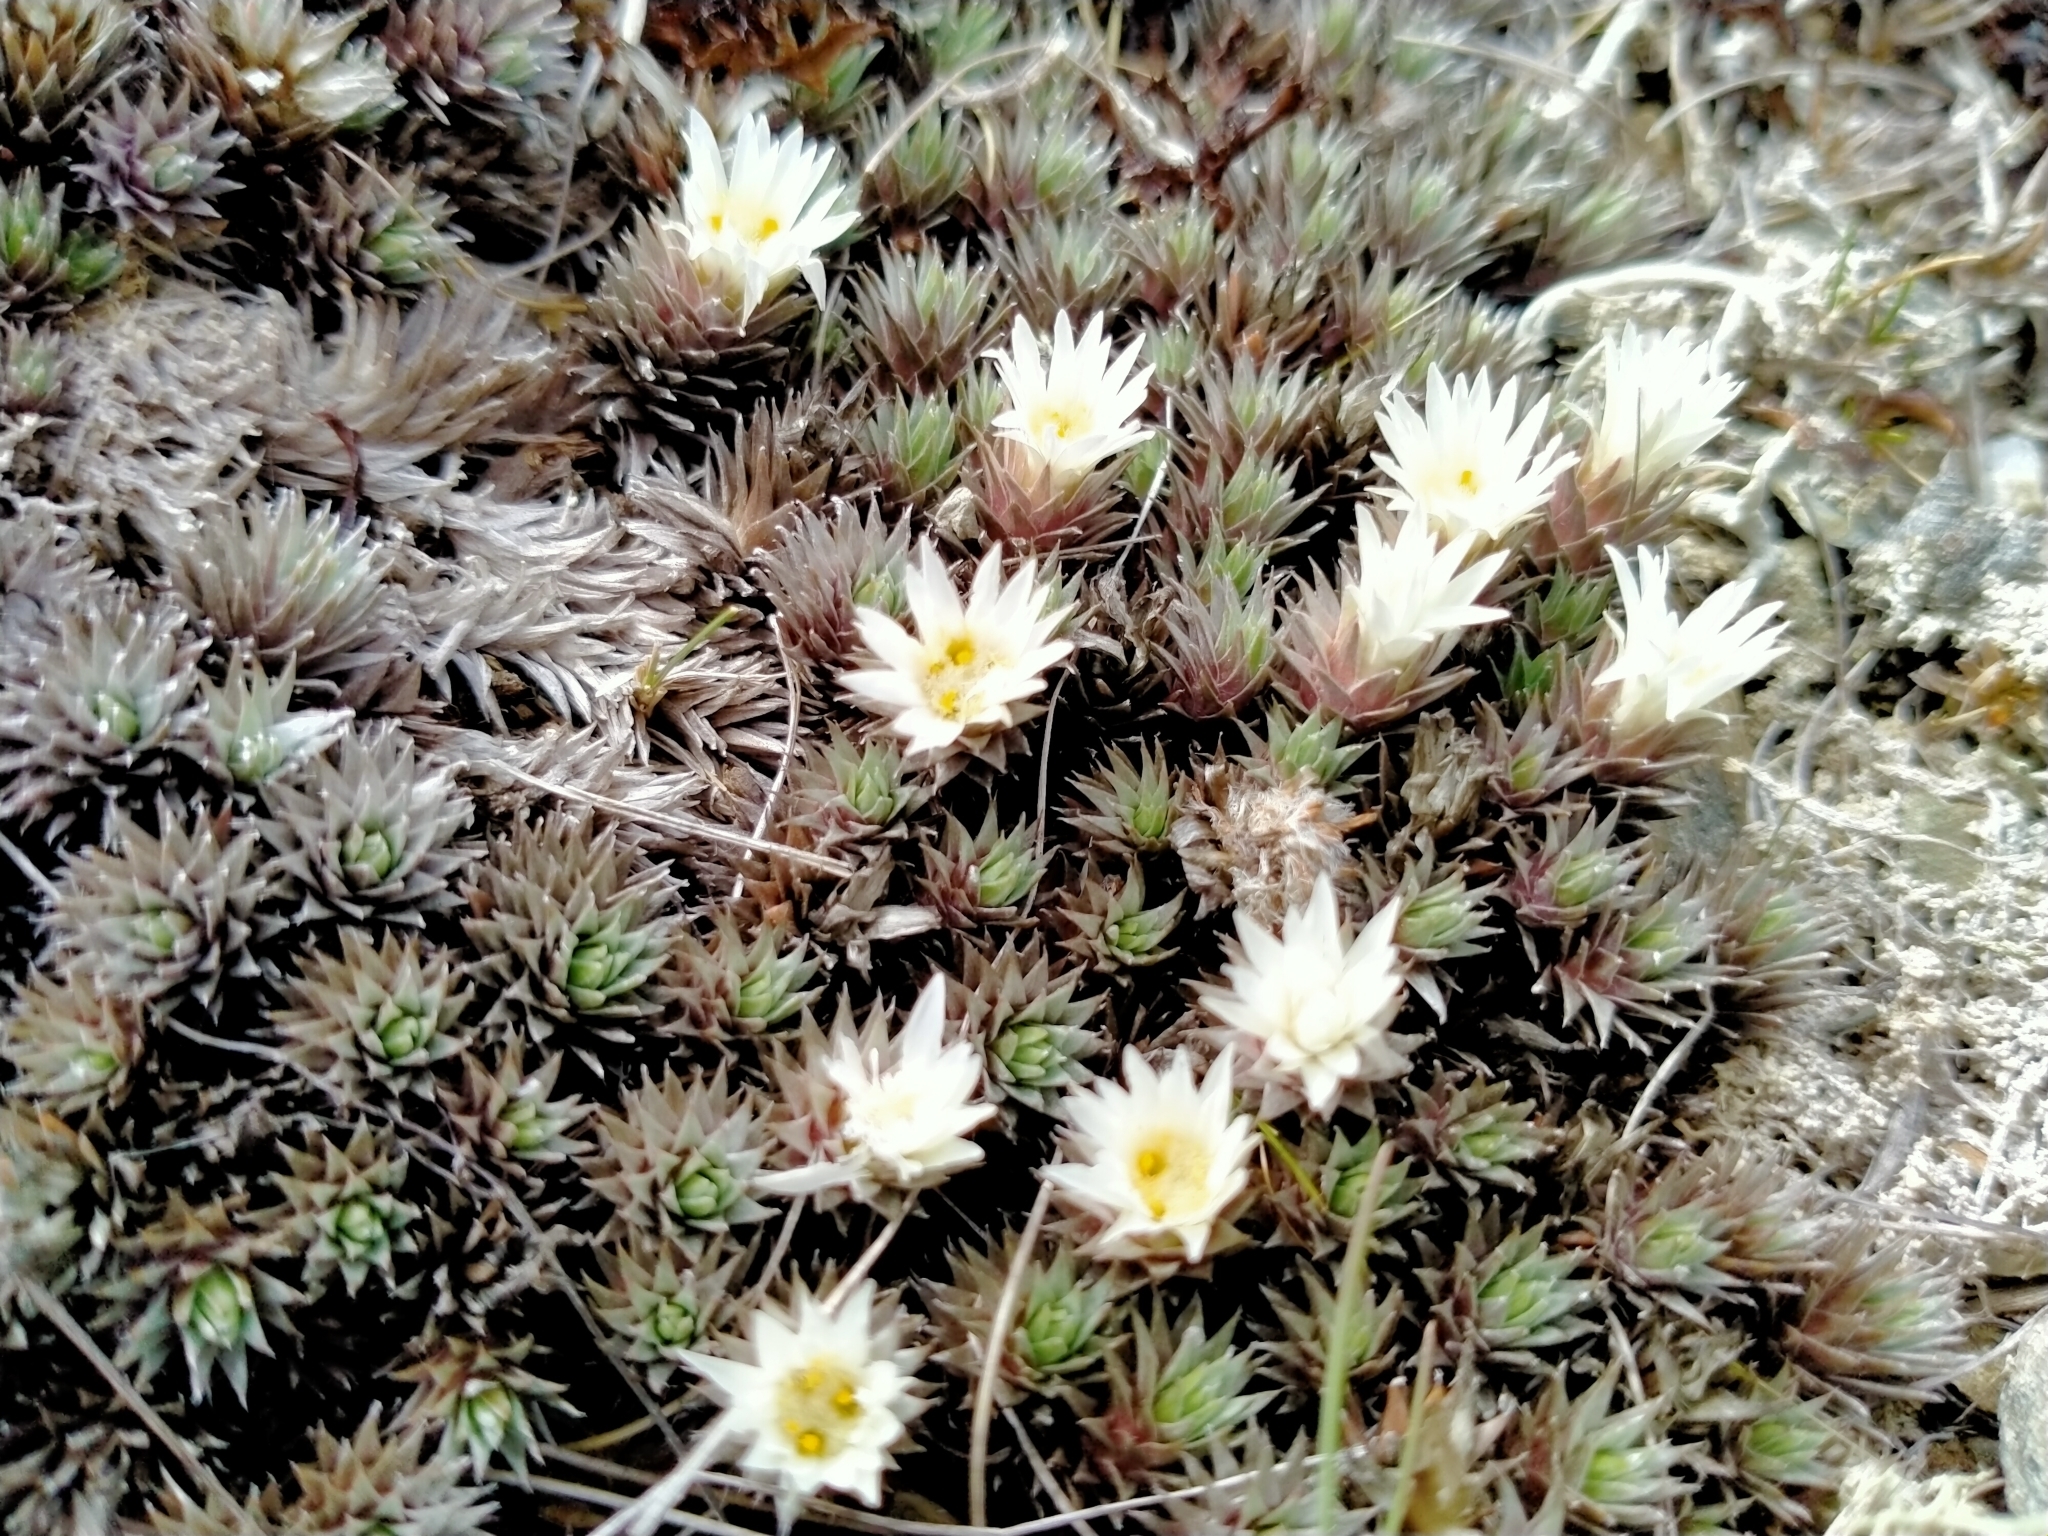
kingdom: Plantae
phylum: Tracheophyta
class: Magnoliopsida
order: Asterales
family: Asteraceae
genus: Raoulia
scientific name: Raoulia grandiflora
